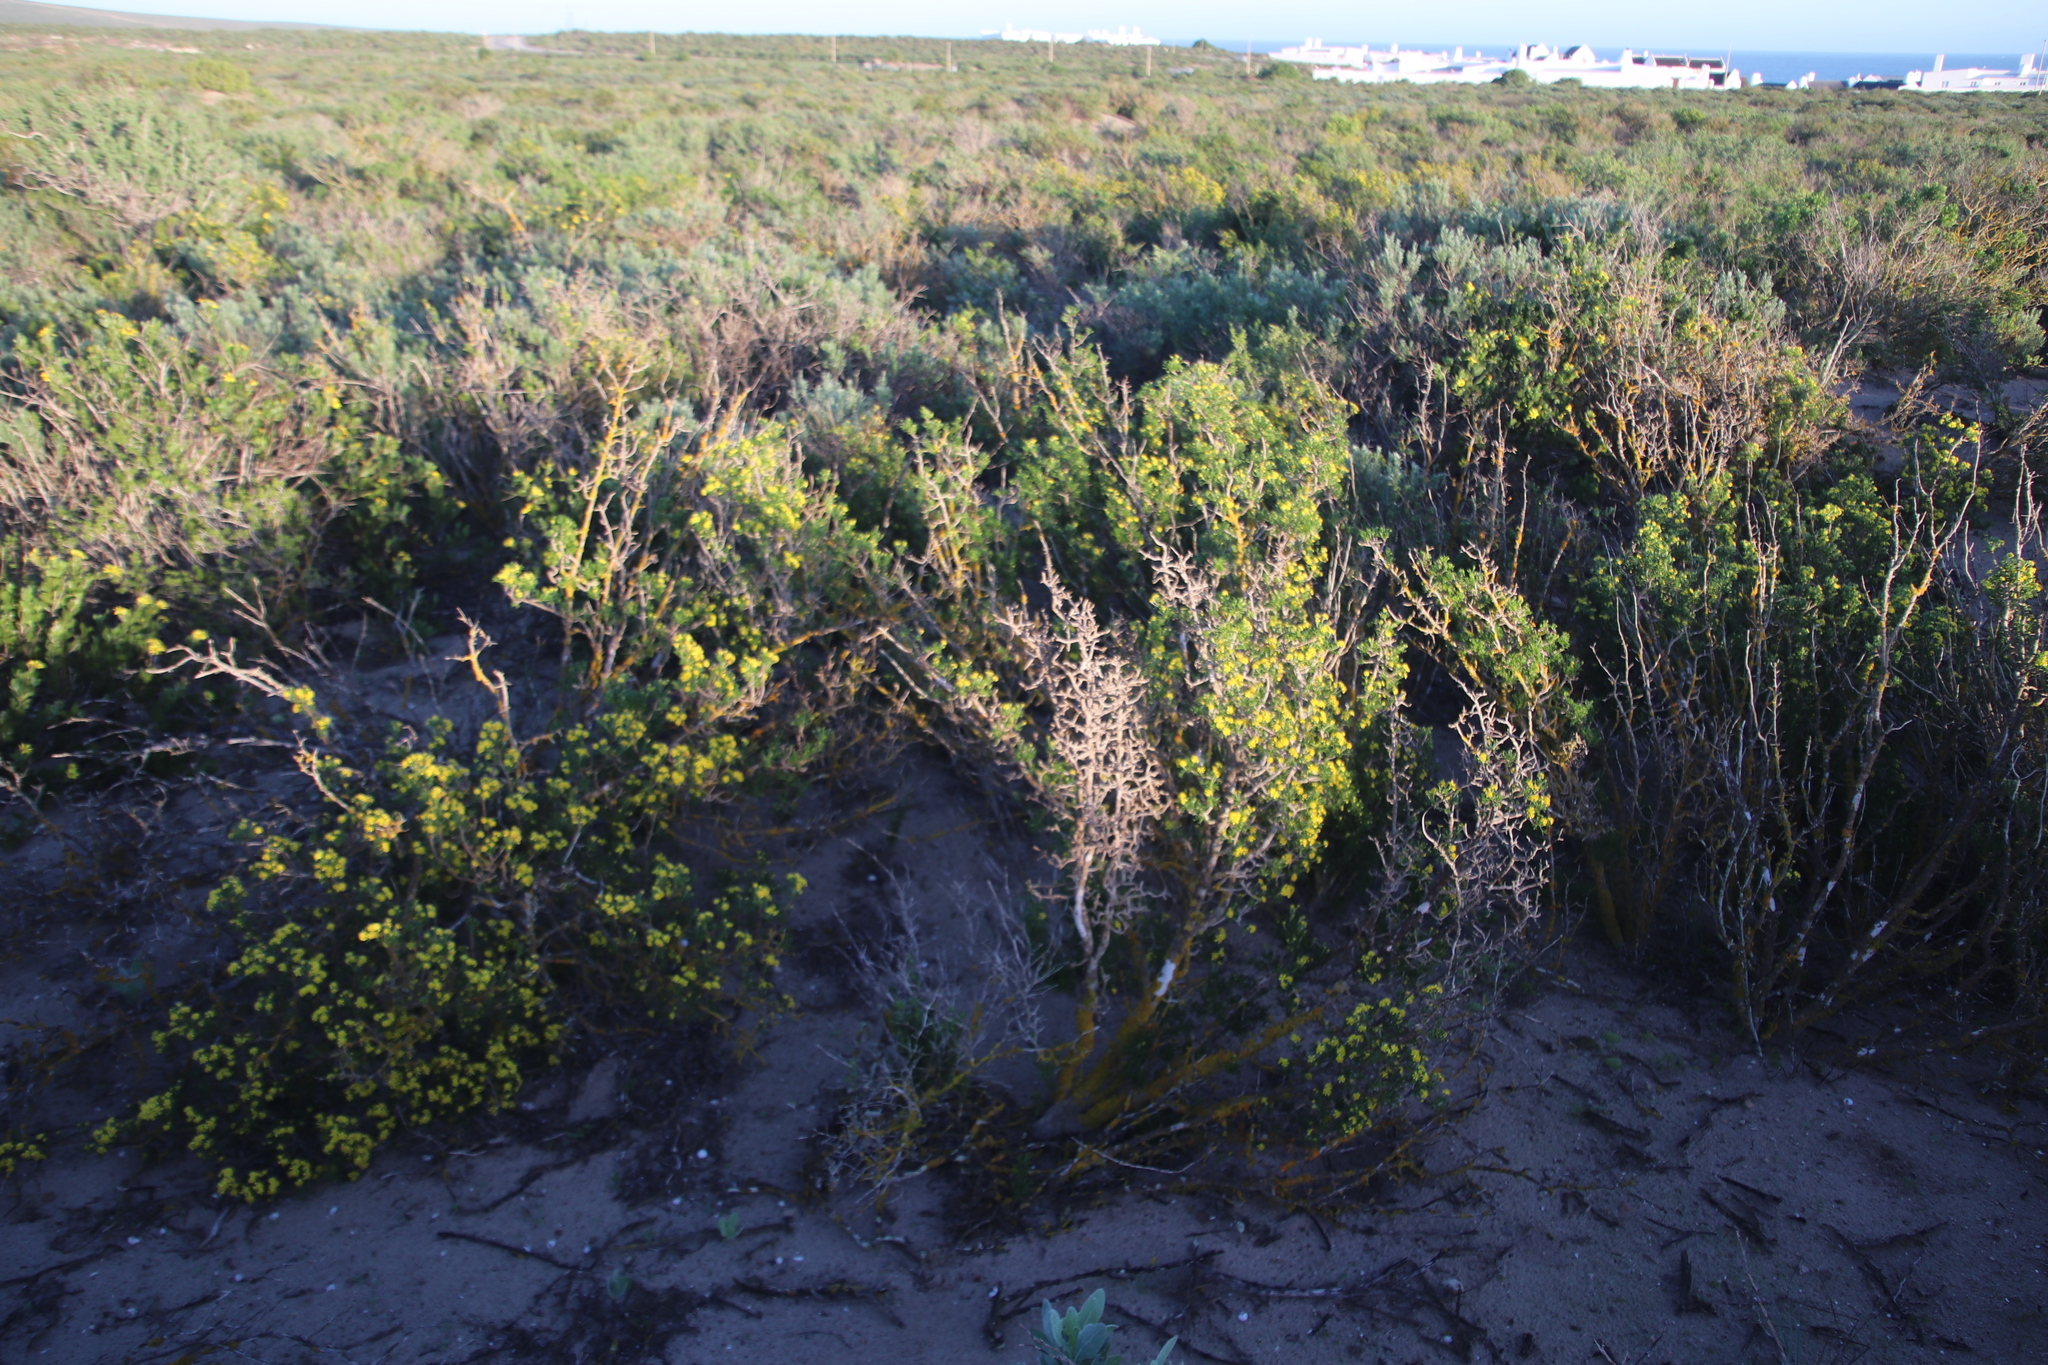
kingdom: Plantae
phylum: Tracheophyta
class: Magnoliopsida
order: Asterales
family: Asteraceae
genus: Euryops
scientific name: Euryops multifidus
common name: Hawk's eye
